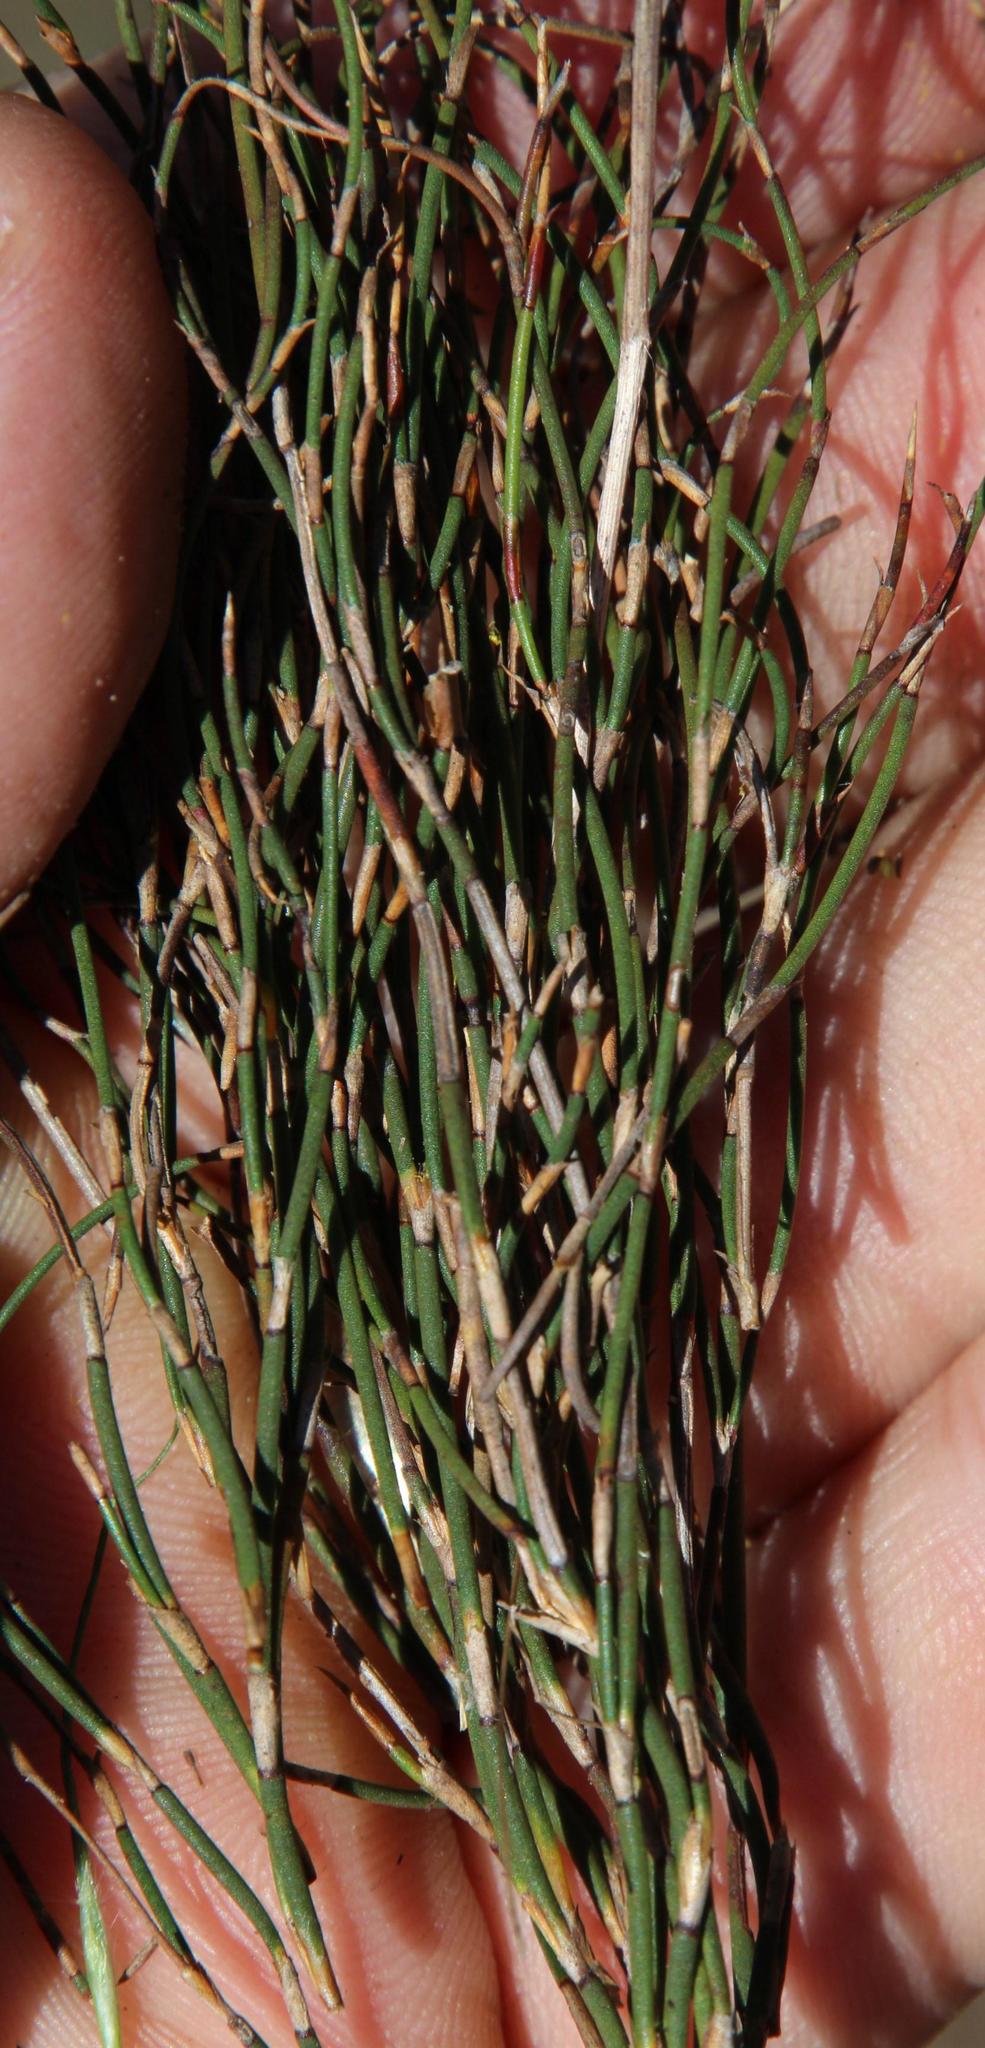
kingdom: Plantae
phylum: Tracheophyta
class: Liliopsida
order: Poales
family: Restionaceae
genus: Restio
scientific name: Restio macer
